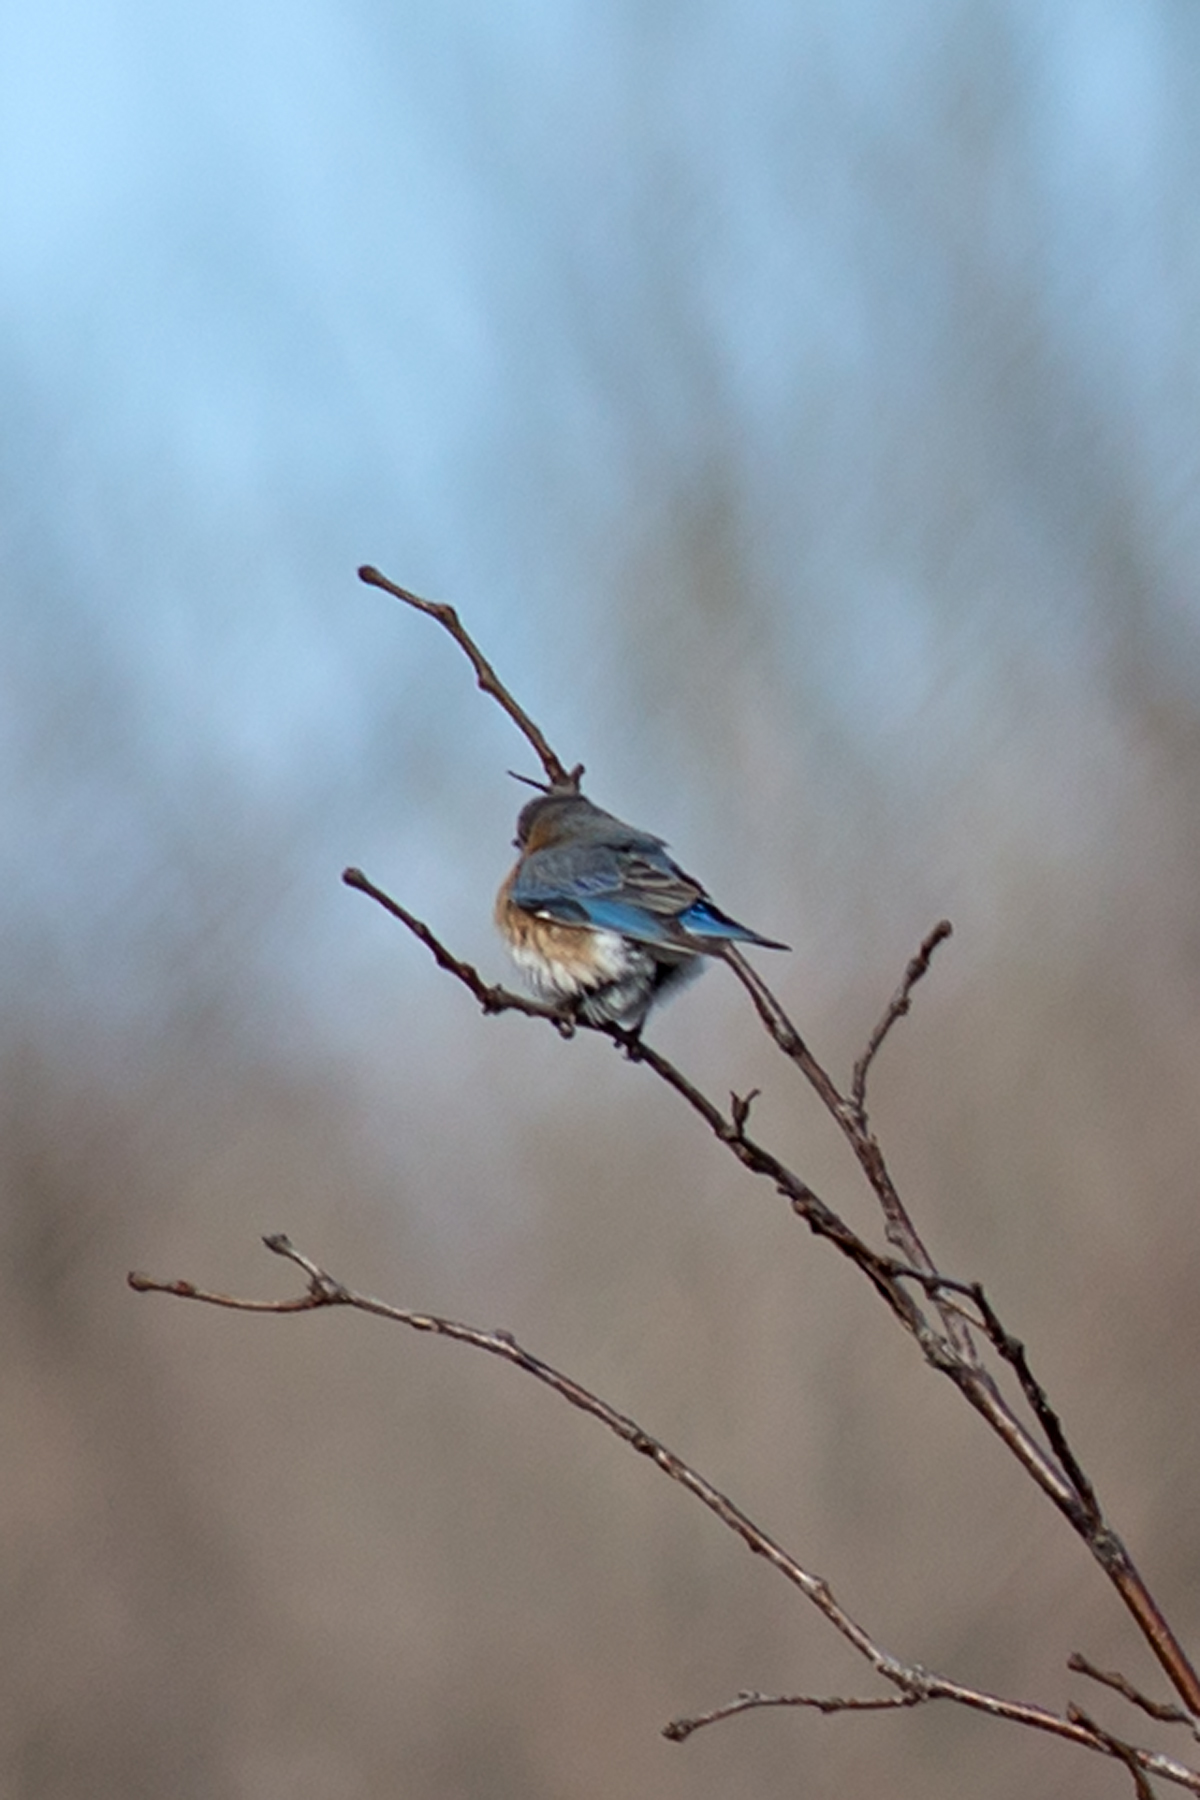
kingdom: Animalia
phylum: Chordata
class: Aves
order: Passeriformes
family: Turdidae
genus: Sialia
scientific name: Sialia sialis
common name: Eastern bluebird
